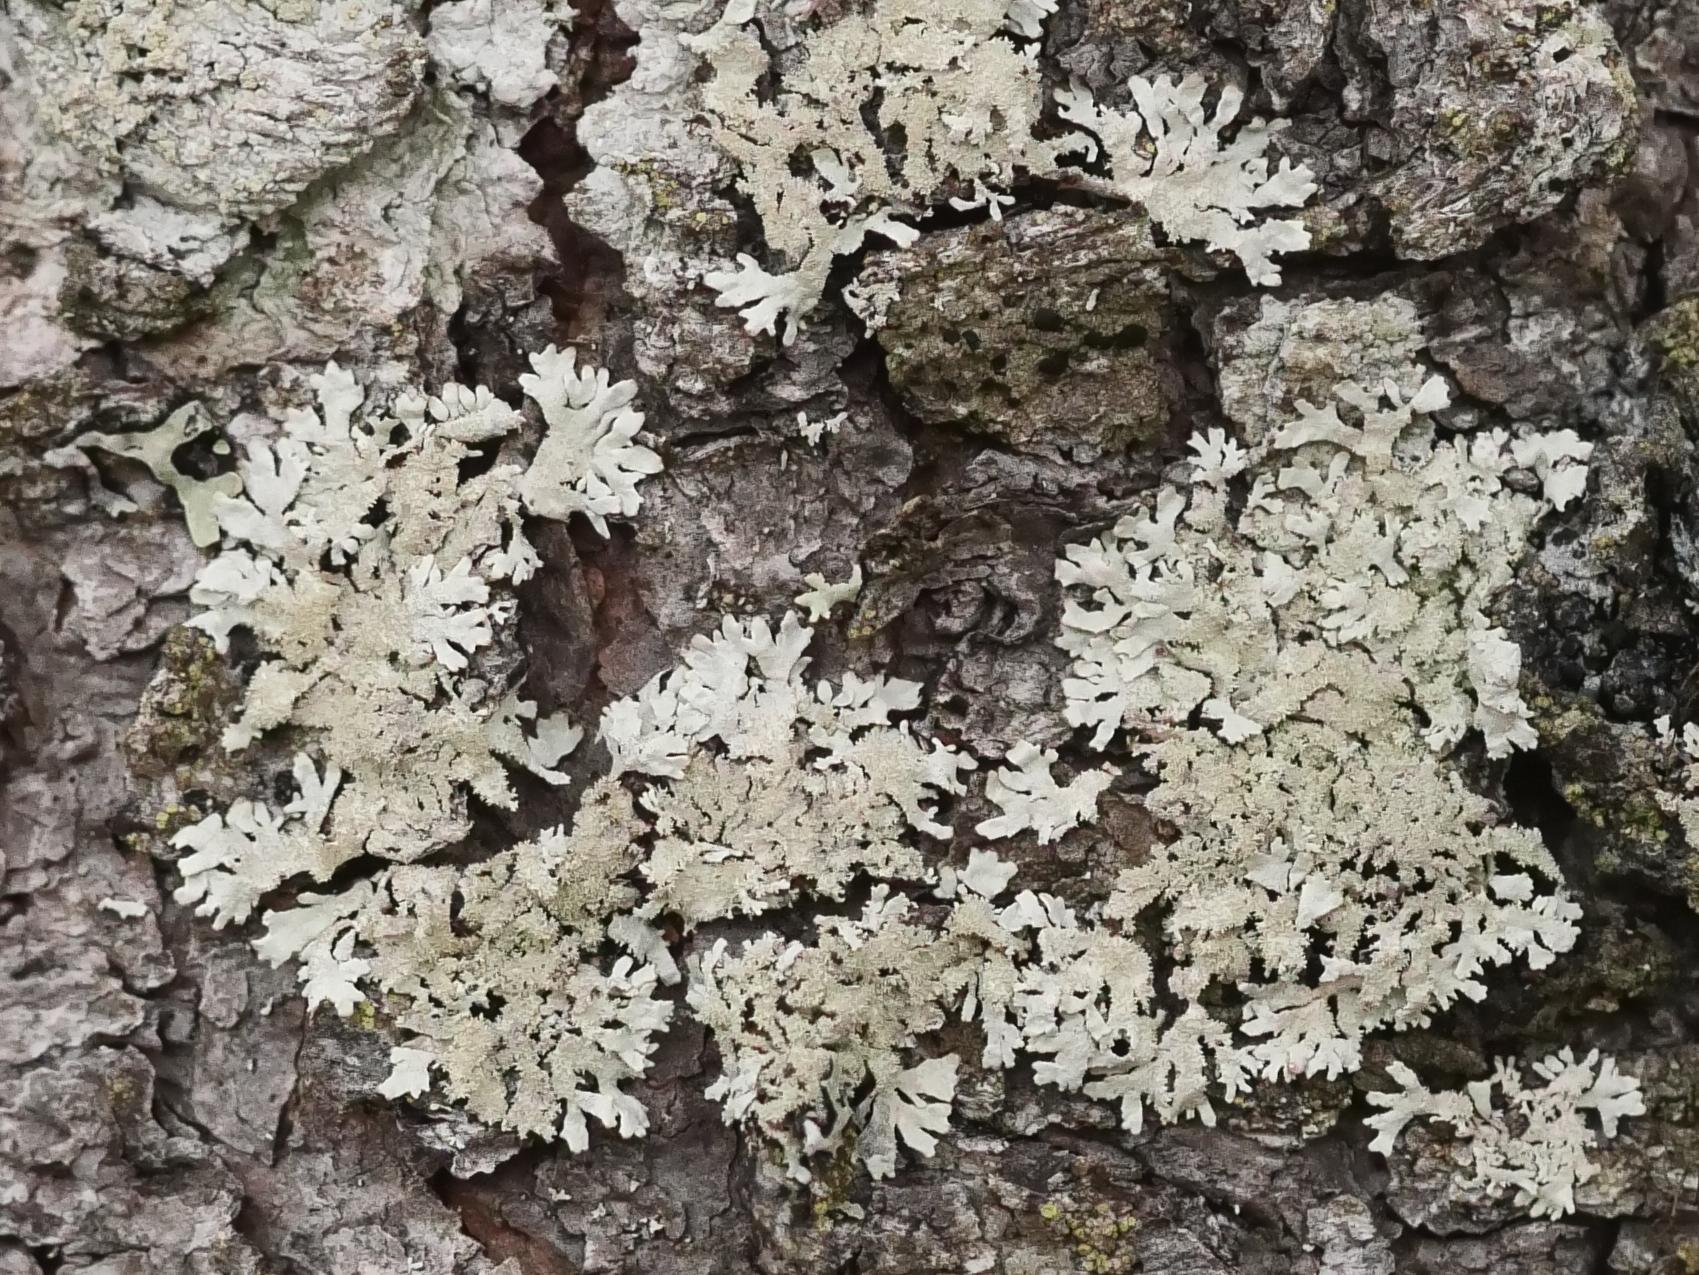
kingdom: Fungi
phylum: Ascomycota
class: Lecanoromycetes
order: Lecanorales
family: Parmeliaceae
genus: Imshaugia
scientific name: Imshaugia aleurites
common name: Salted starburst lichen
